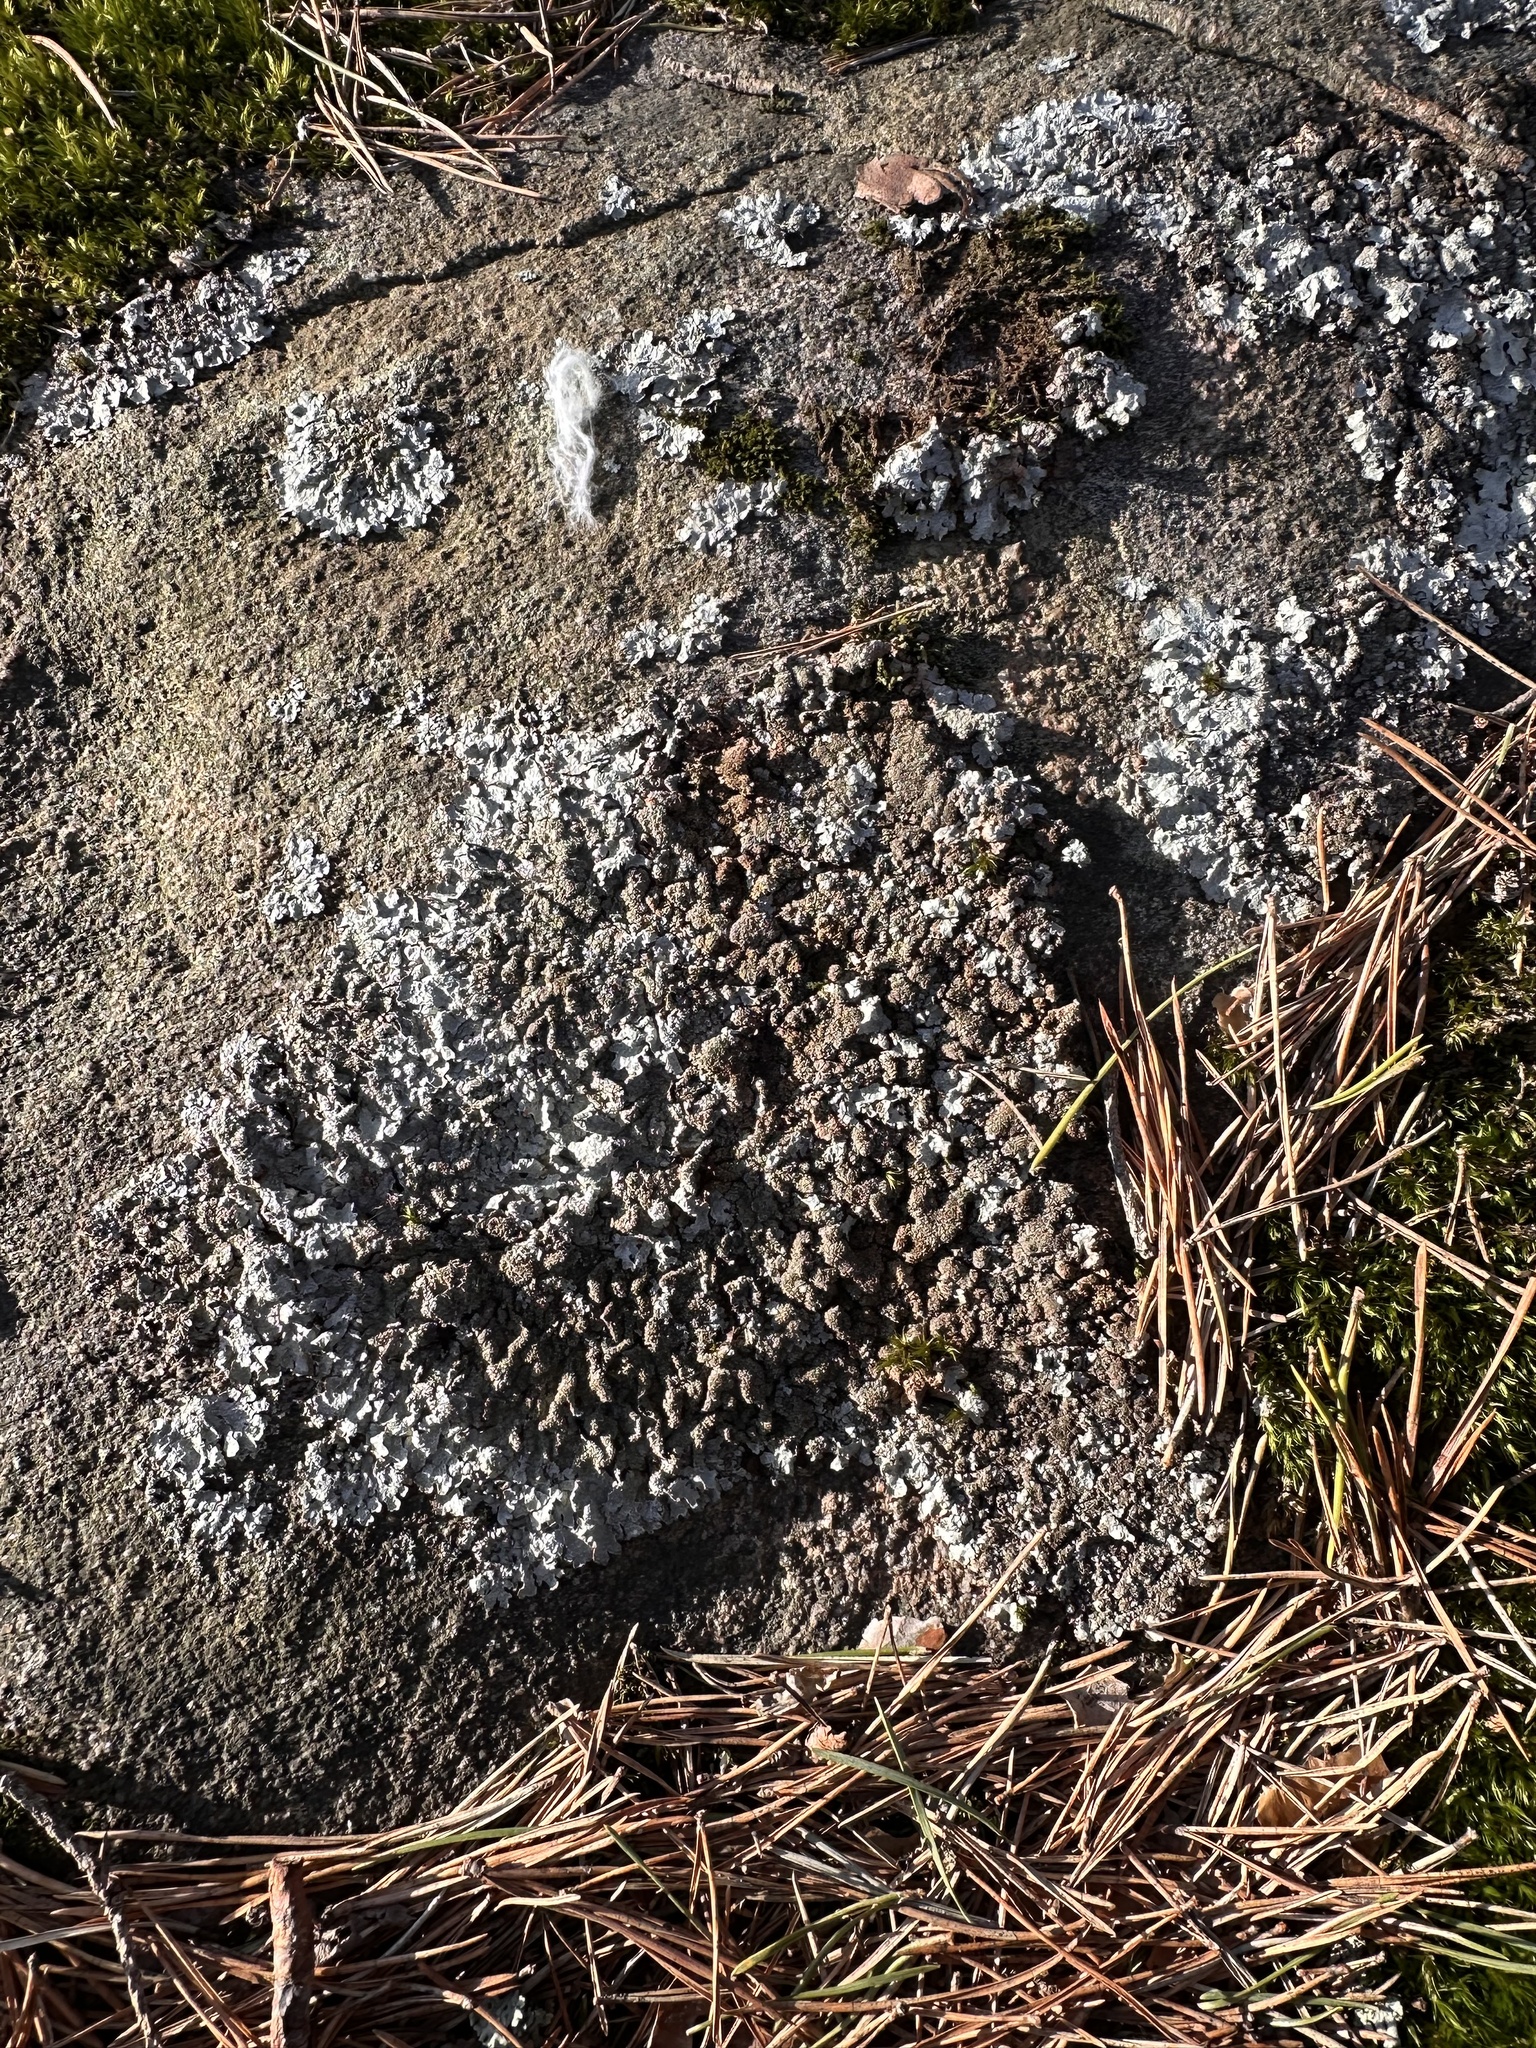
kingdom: Fungi
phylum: Ascomycota
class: Lecanoromycetes
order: Lecanorales
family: Parmeliaceae
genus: Parmelia
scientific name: Parmelia saxatilis
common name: Salted shield lichen
